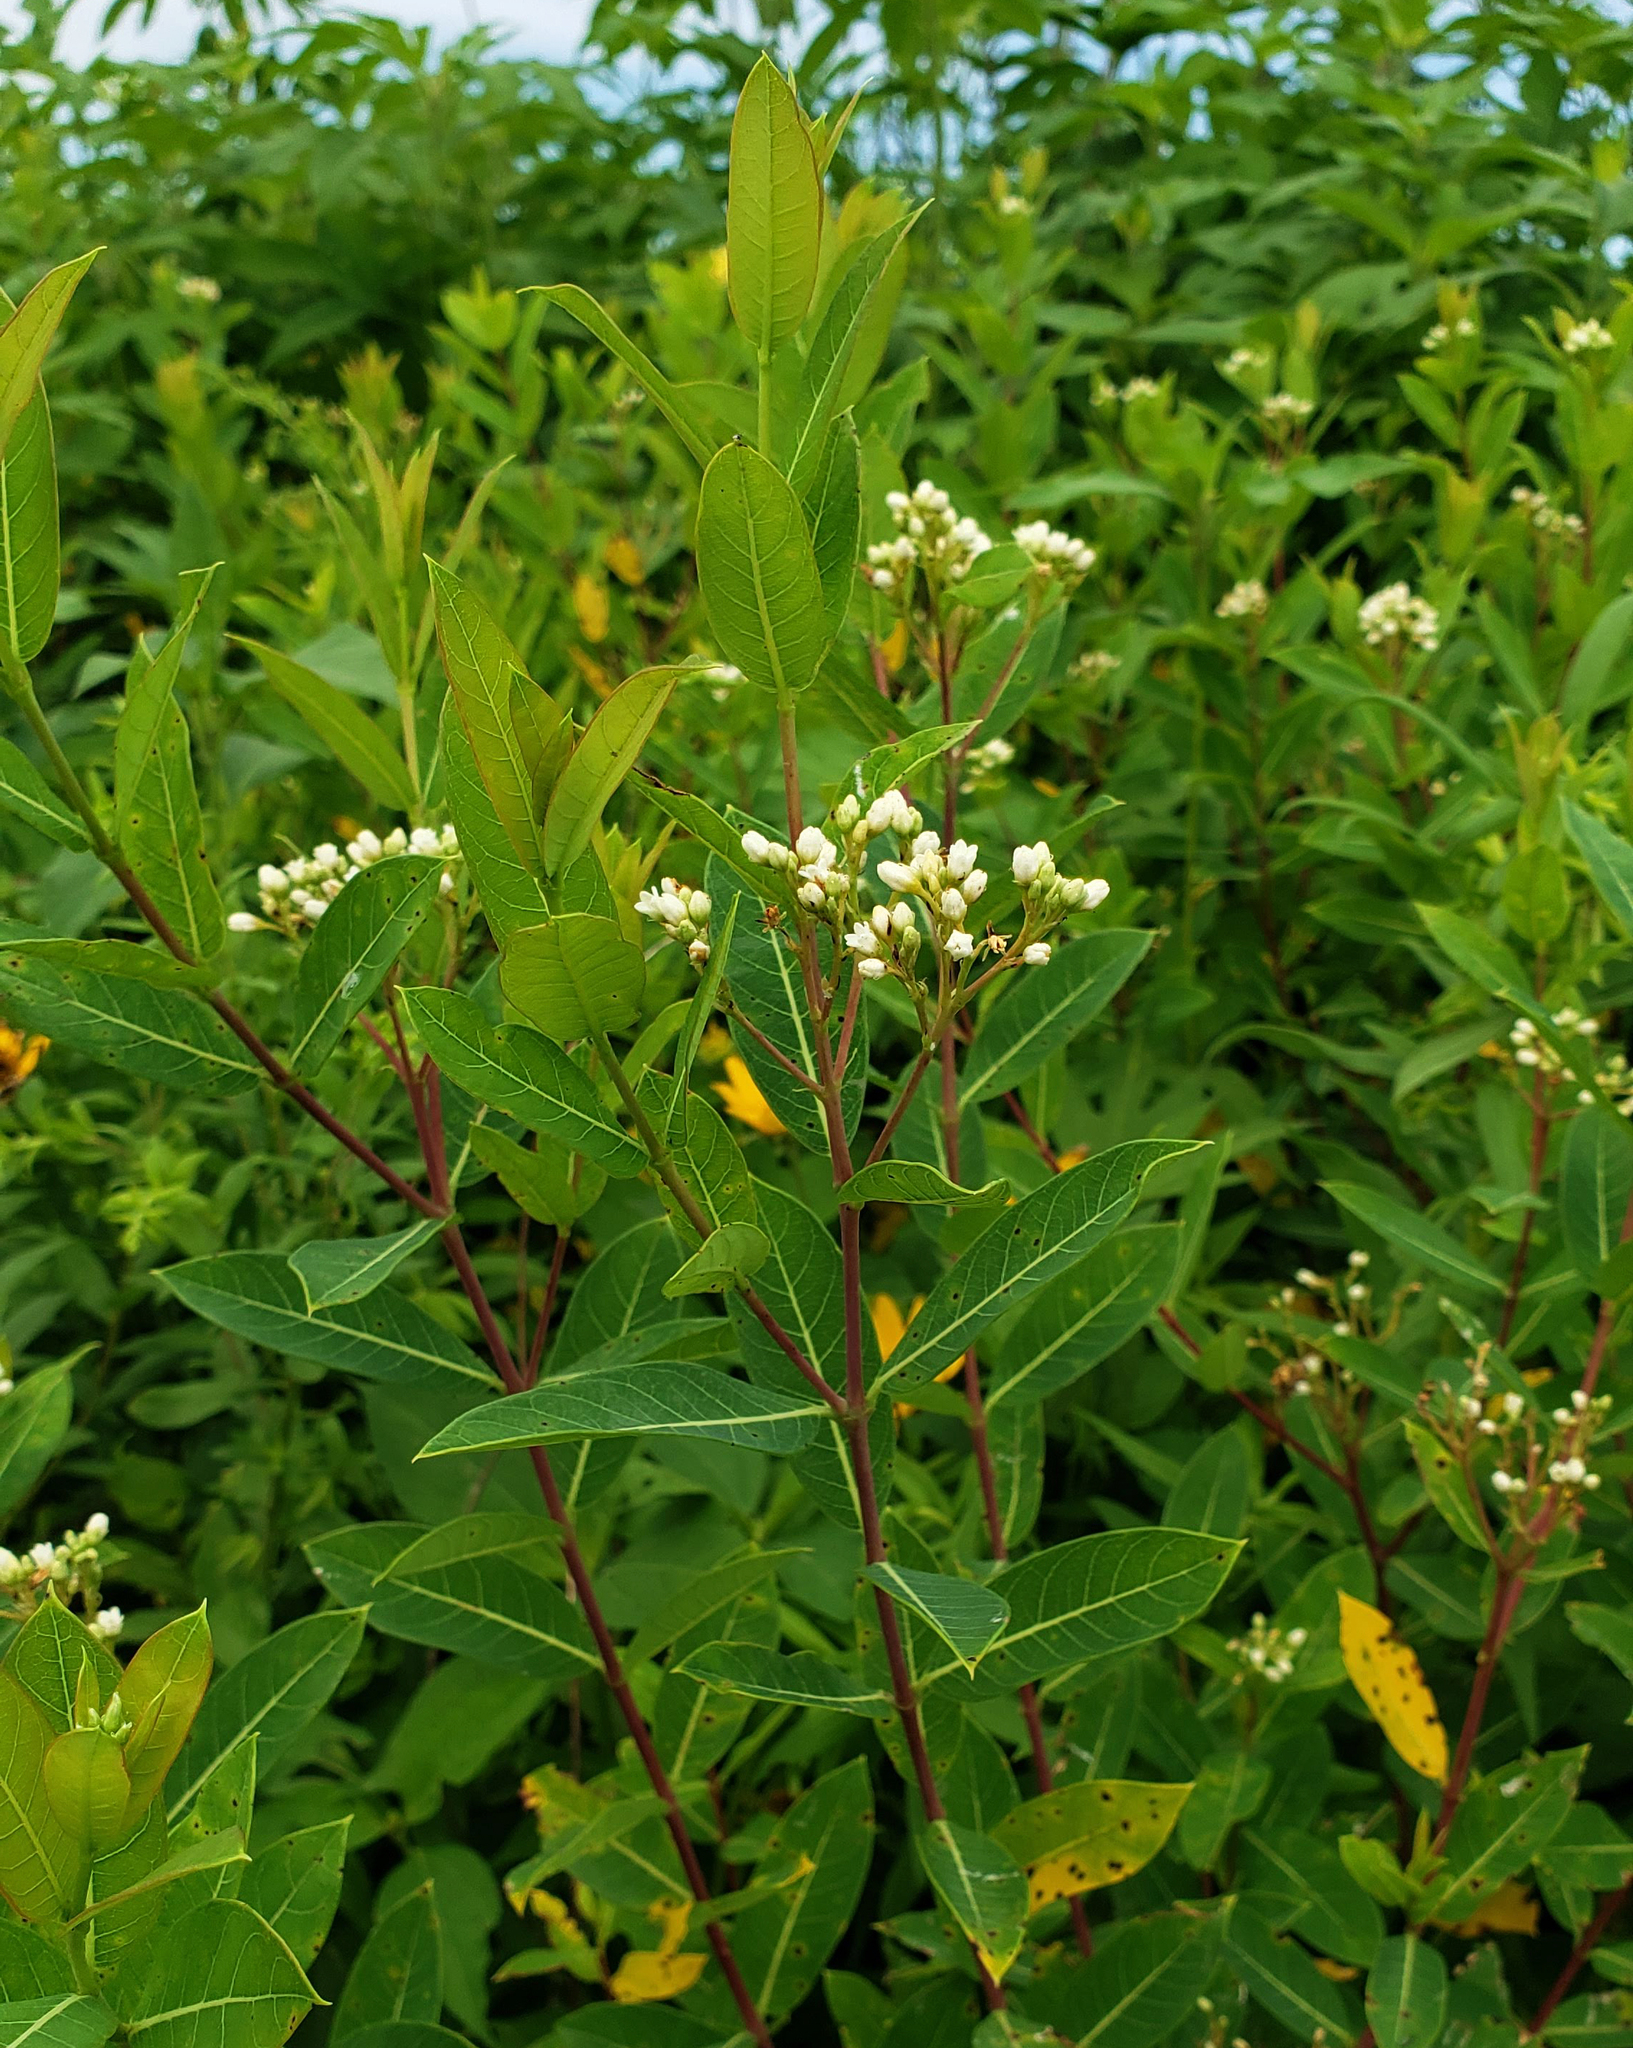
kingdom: Plantae
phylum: Tracheophyta
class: Magnoliopsida
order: Gentianales
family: Apocynaceae
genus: Apocynum
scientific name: Apocynum cannabinum
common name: Hemp dogbane
